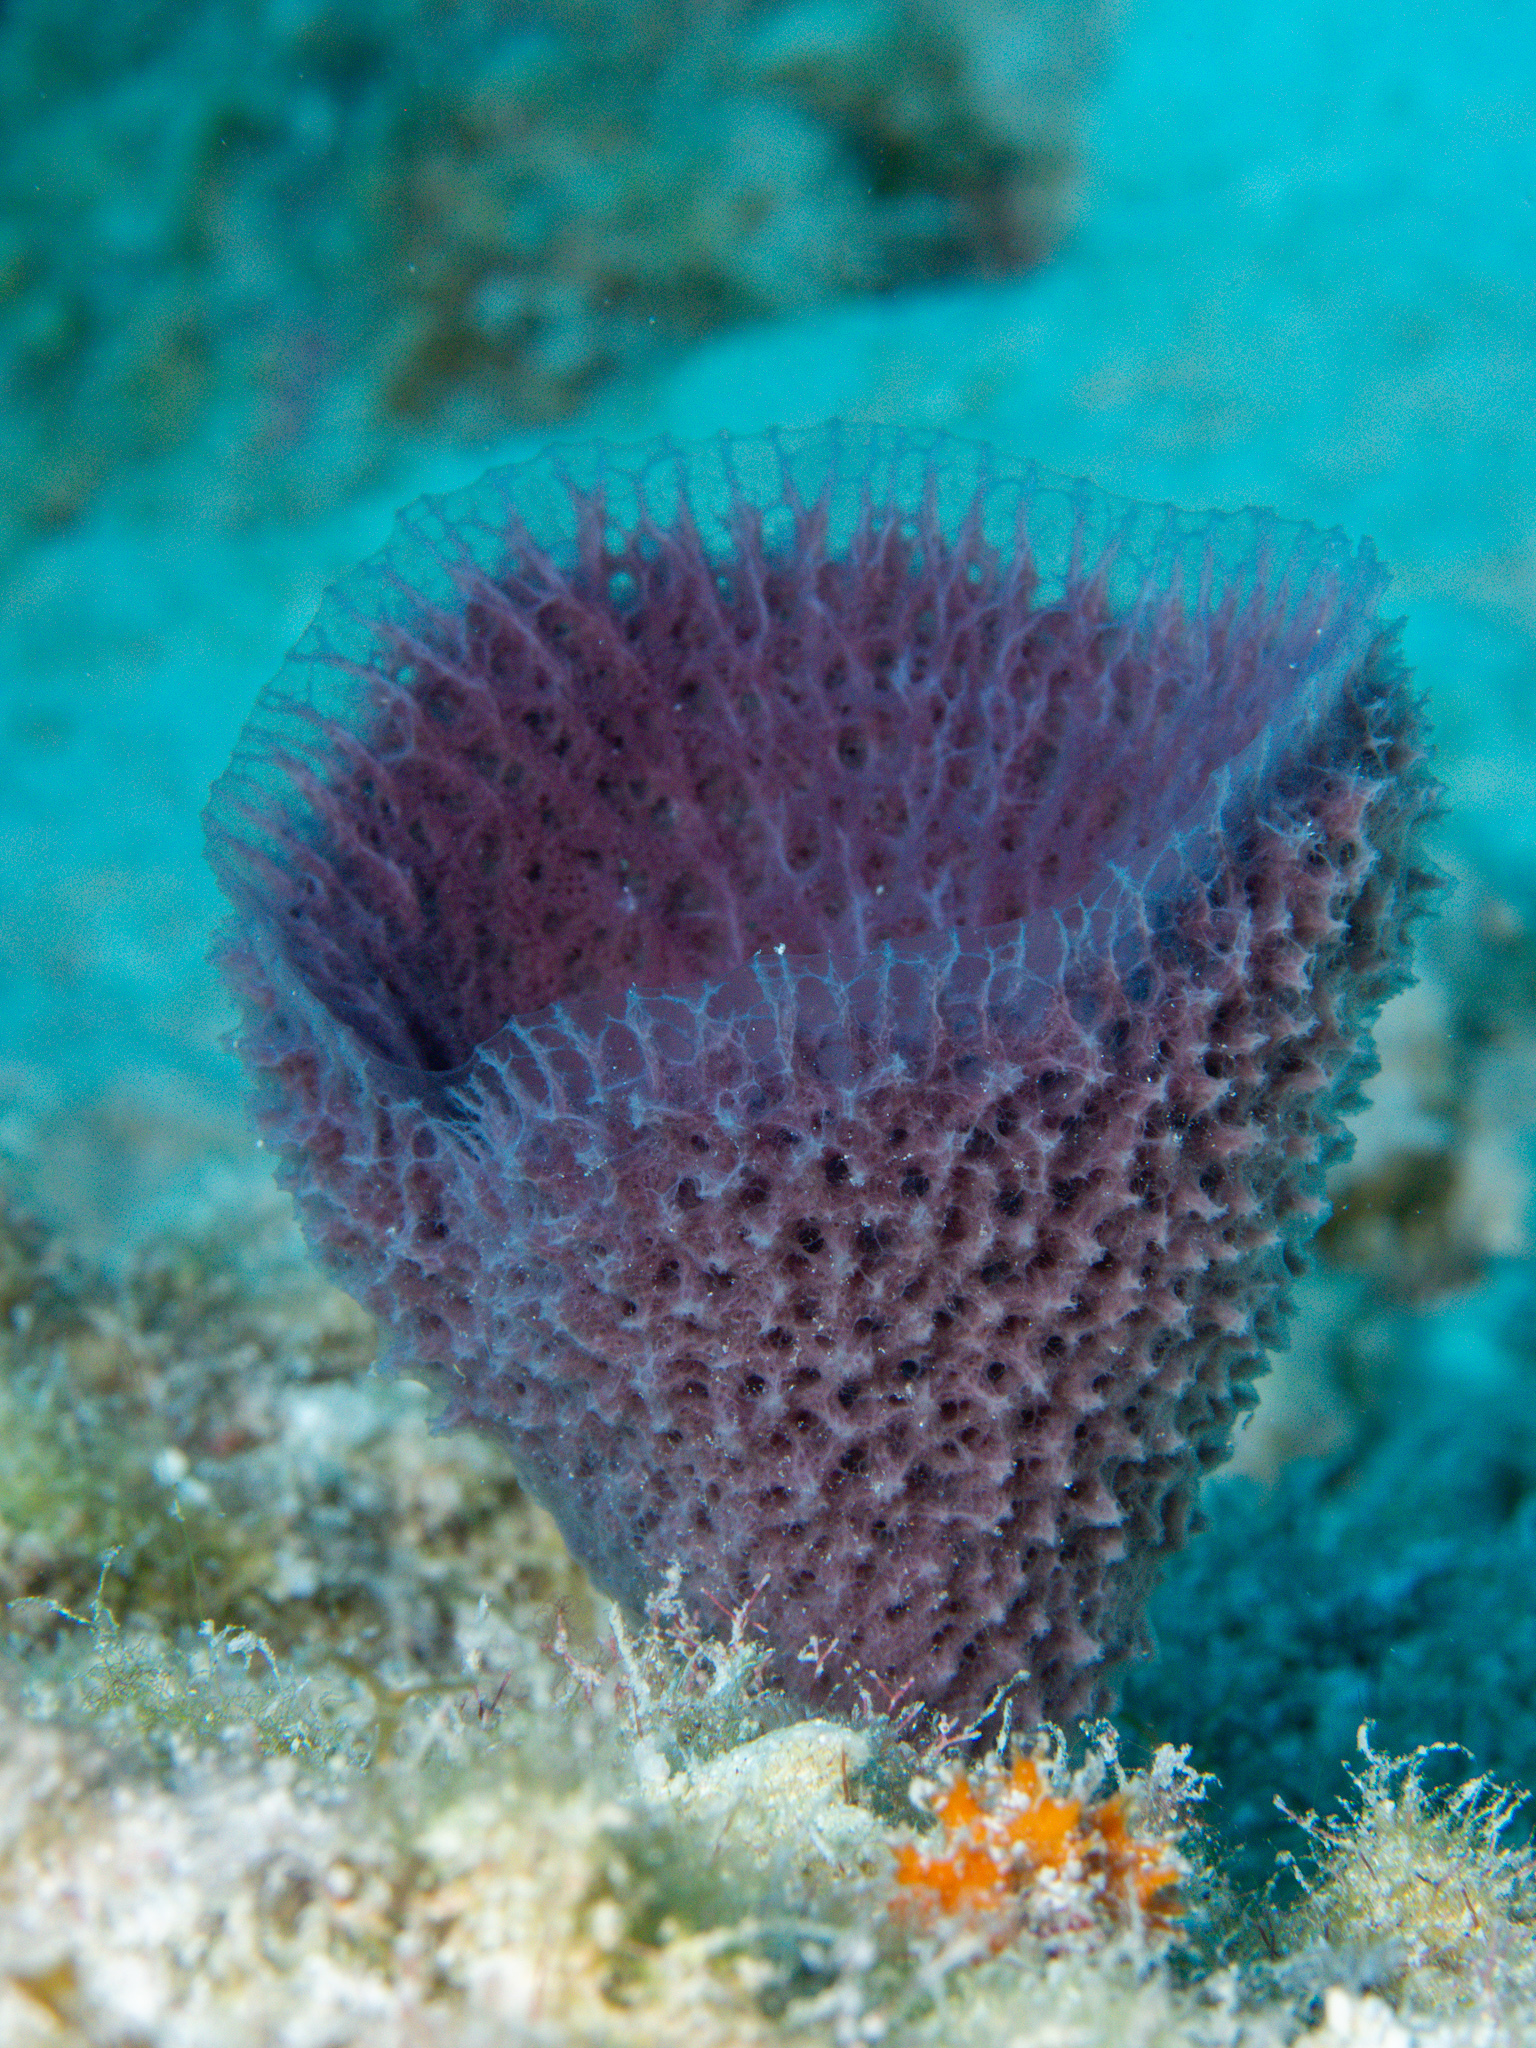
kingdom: Animalia
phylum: Porifera
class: Demospongiae
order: Haplosclerida
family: Niphatidae
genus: Niphates
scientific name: Niphates digitalis
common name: Pink vase sponge
